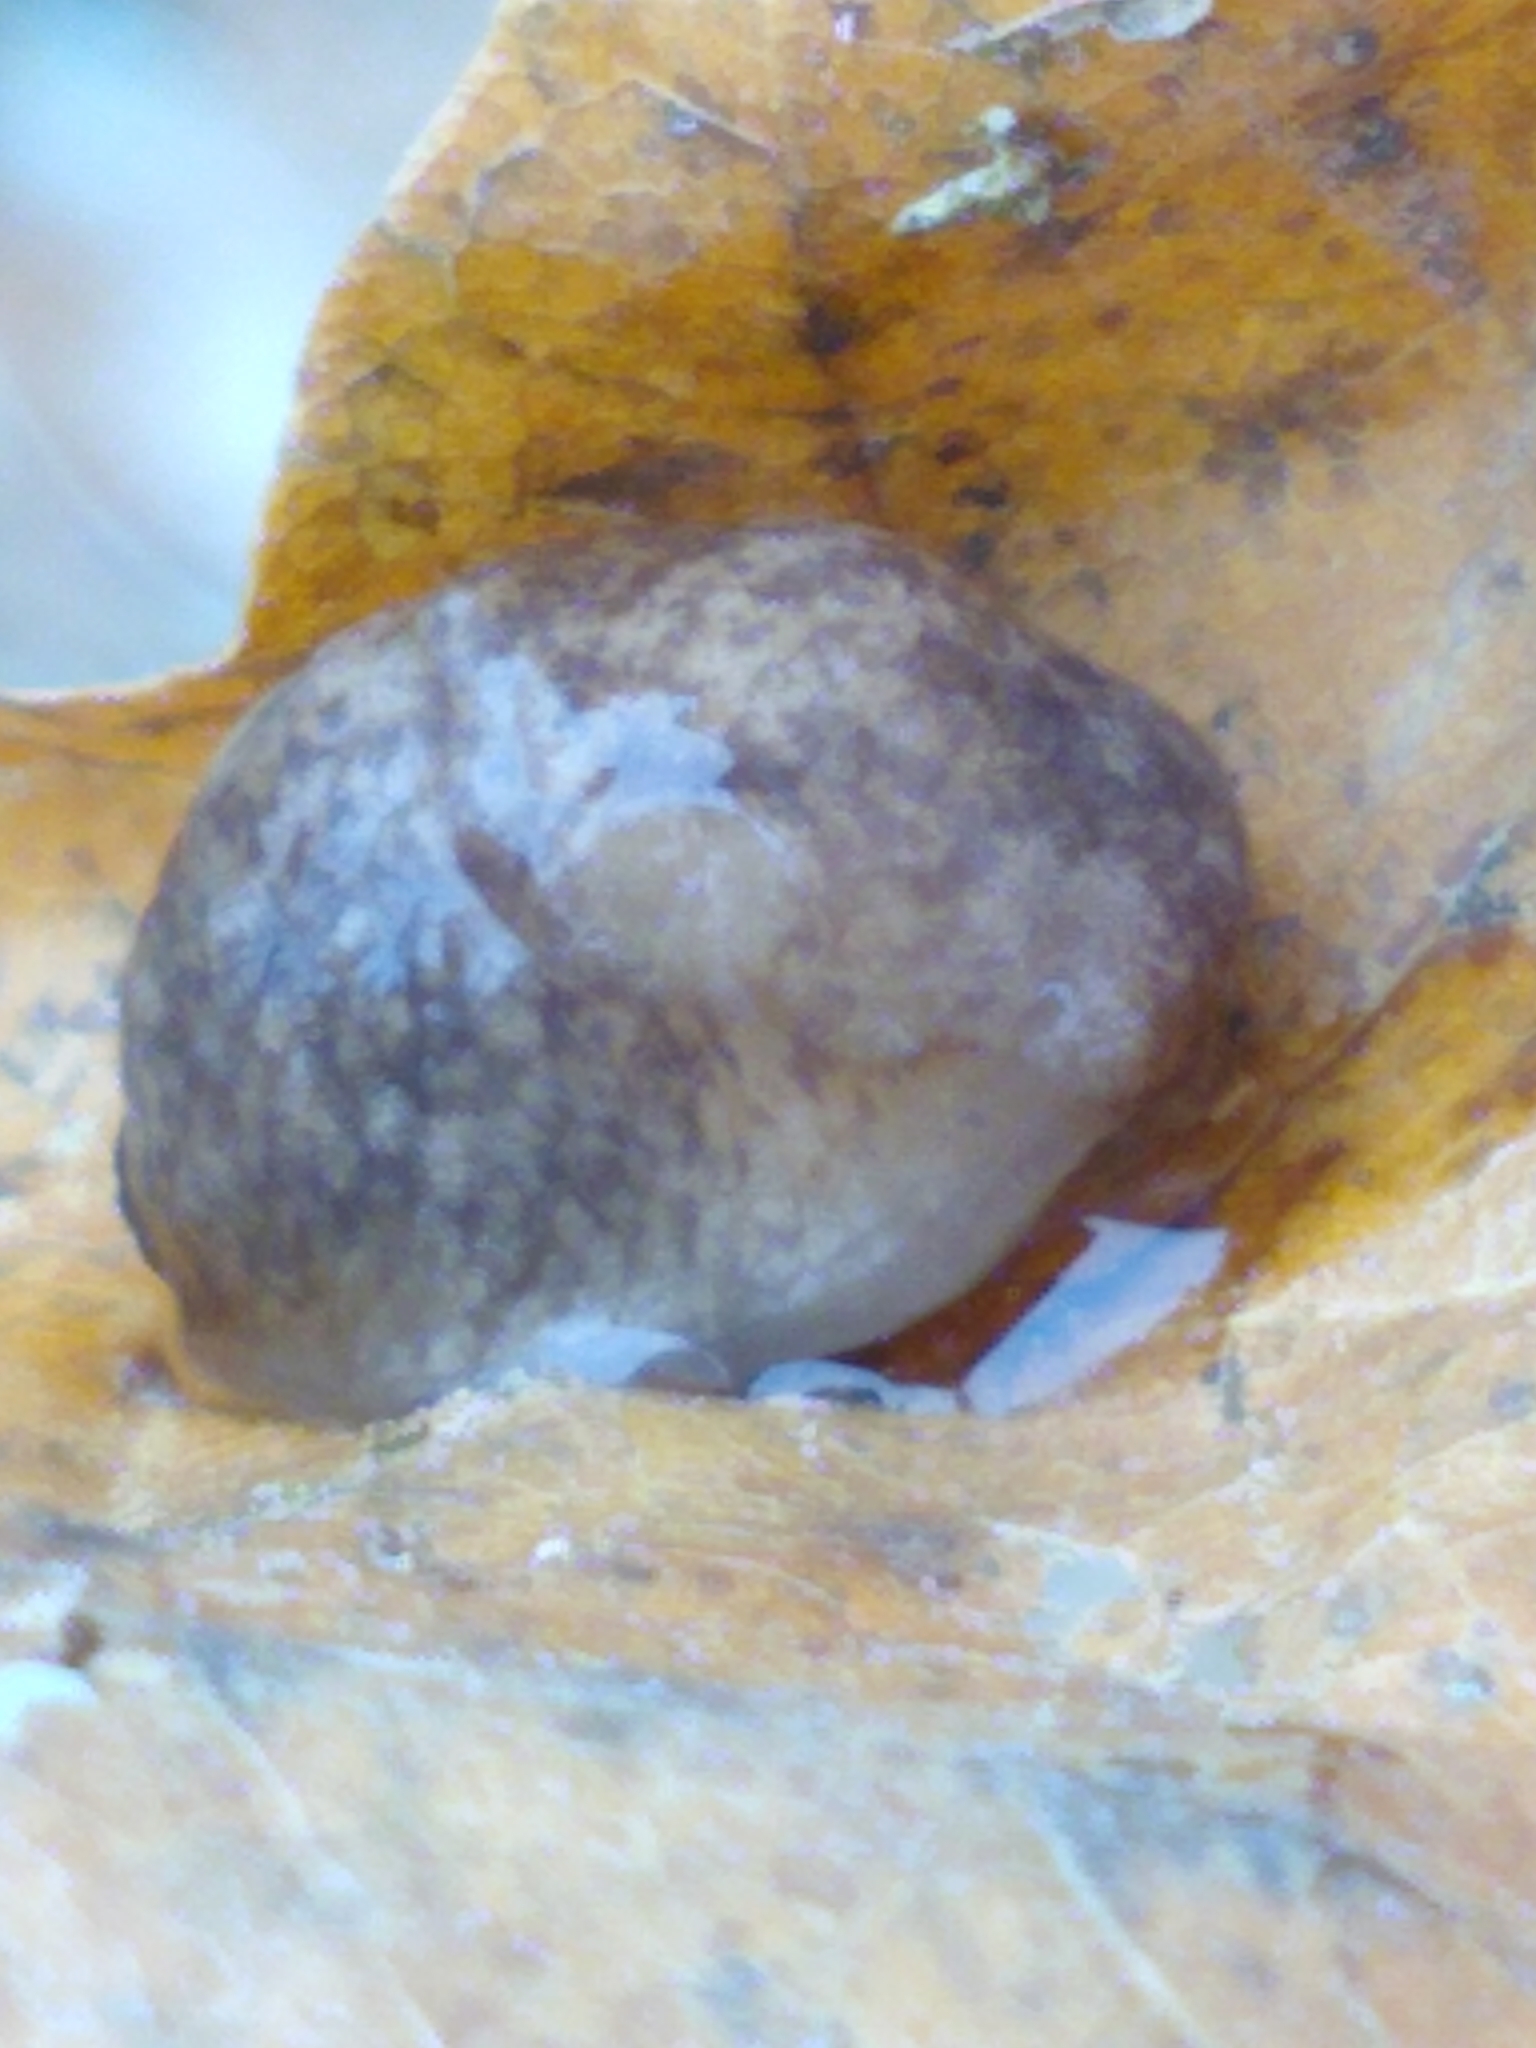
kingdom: Animalia
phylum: Mollusca
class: Gastropoda
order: Stylommatophora
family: Agriolimacidae
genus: Deroceras
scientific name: Deroceras reticulatum
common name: Gray field slug
